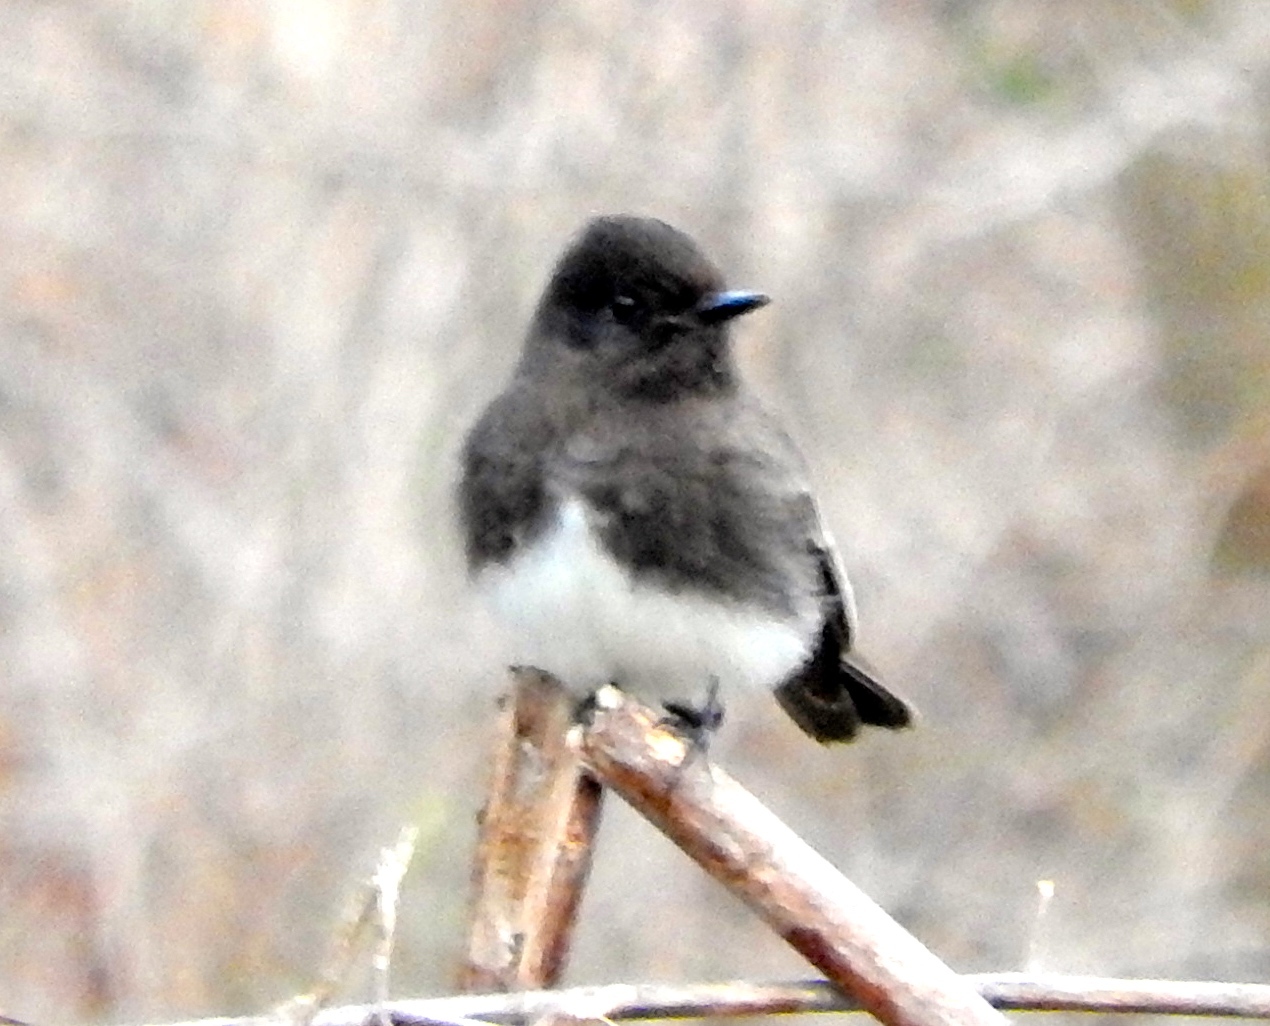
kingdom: Animalia
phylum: Chordata
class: Aves
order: Passeriformes
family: Tyrannidae
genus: Sayornis
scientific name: Sayornis nigricans
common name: Black phoebe
